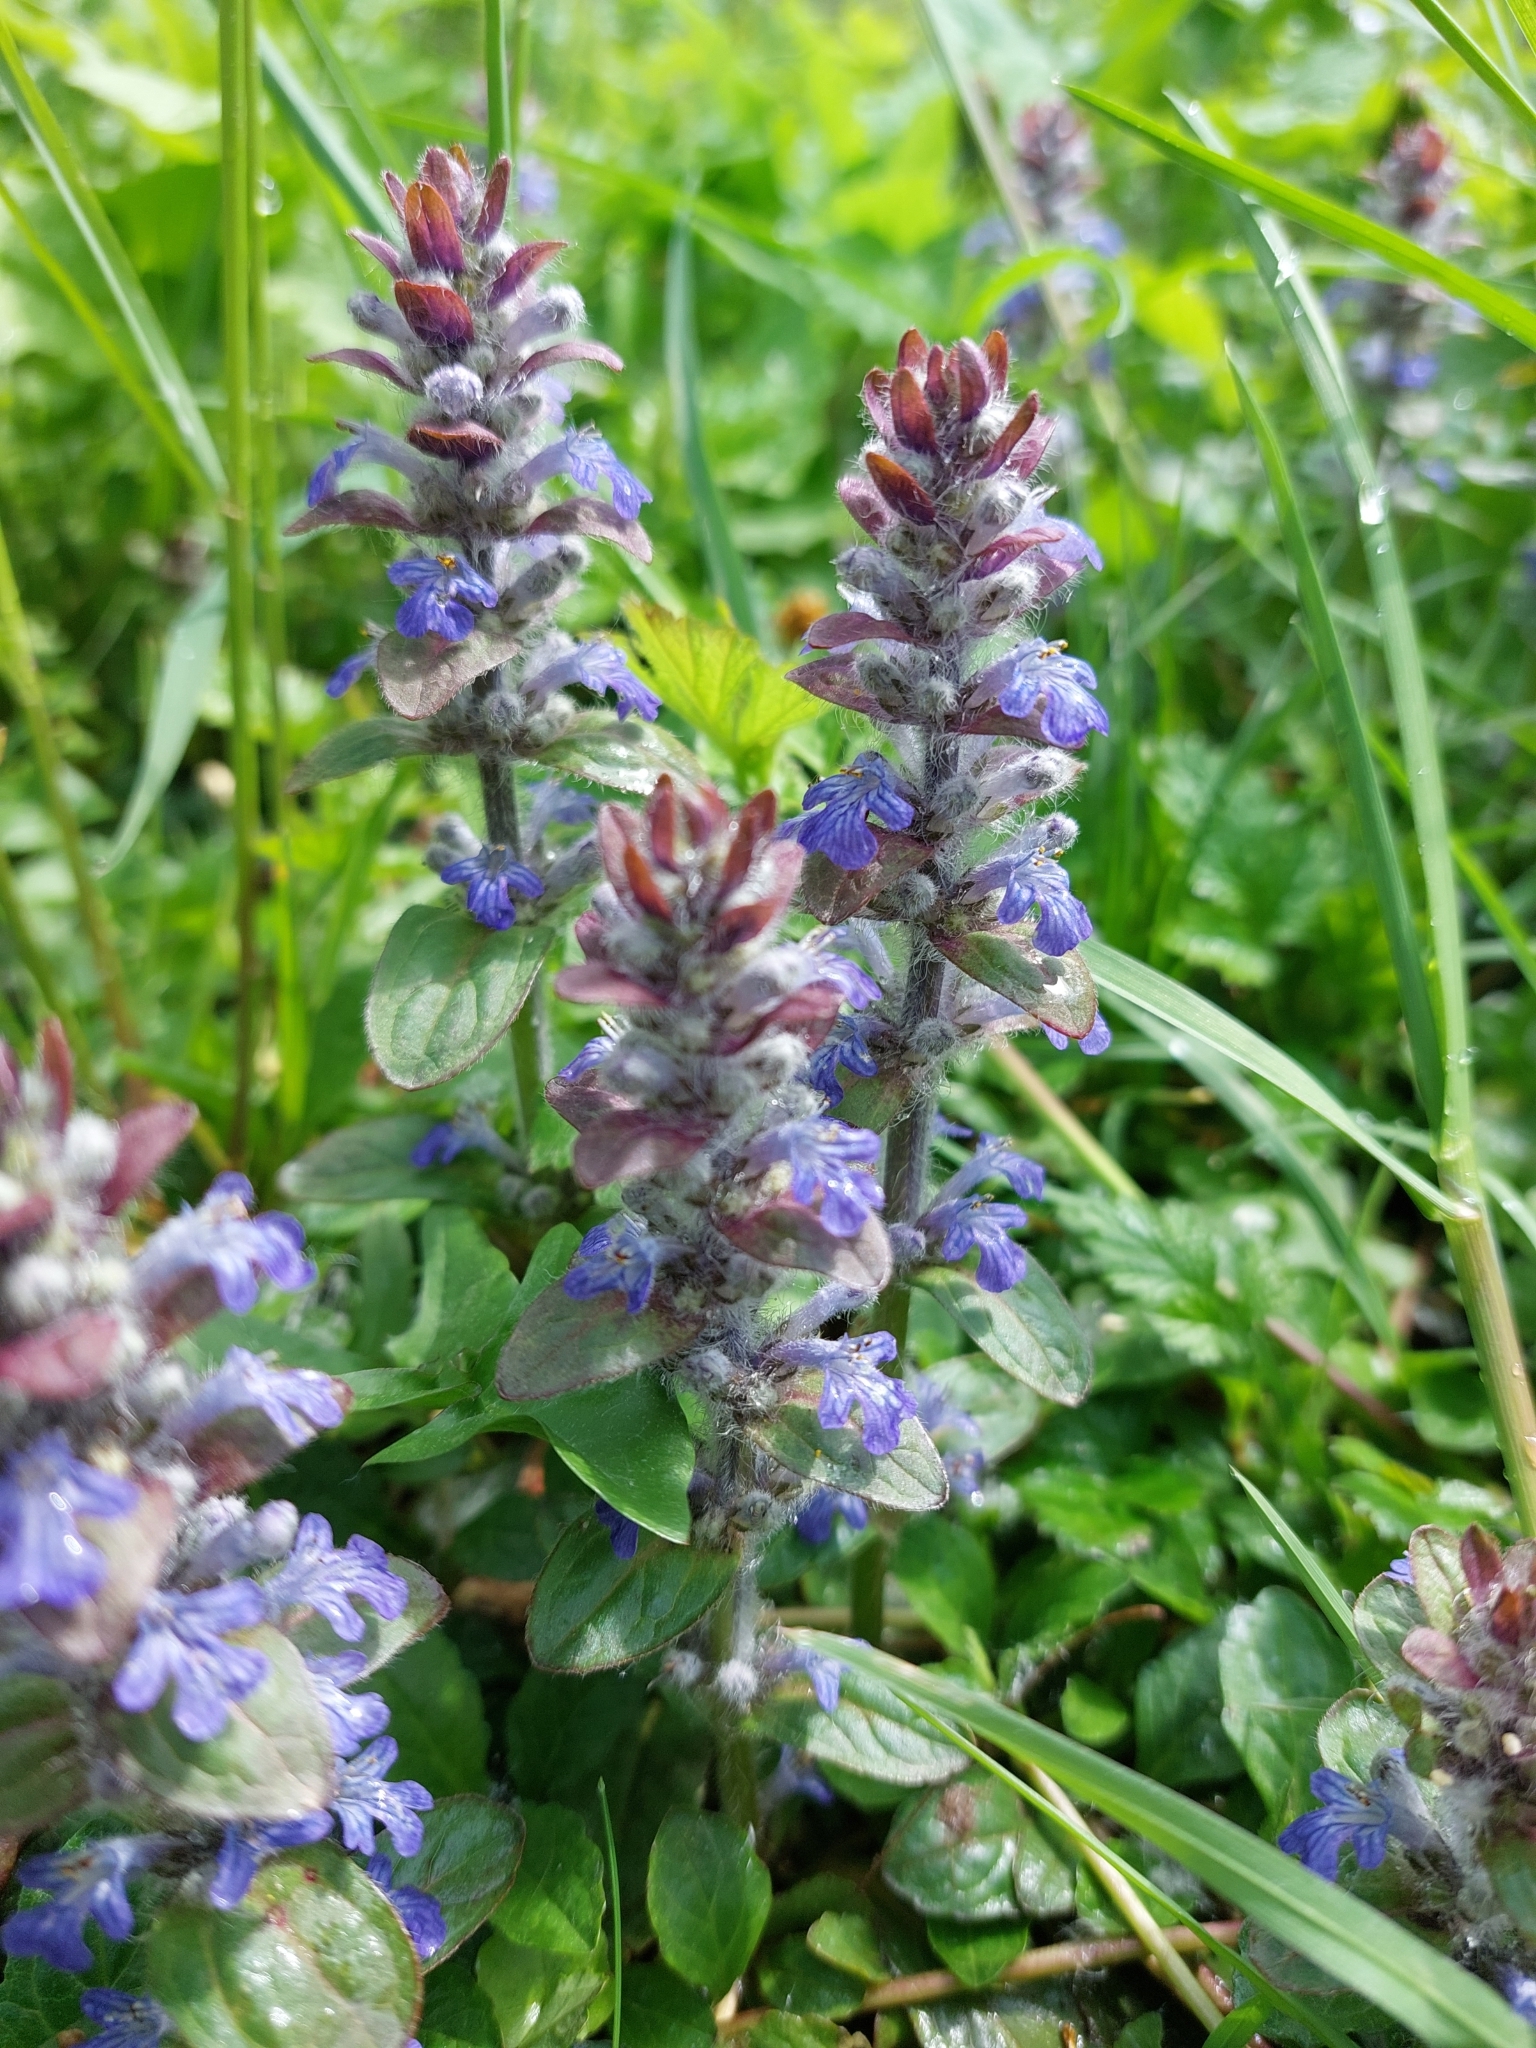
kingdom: Plantae
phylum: Tracheophyta
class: Magnoliopsida
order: Lamiales
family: Lamiaceae
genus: Ajuga
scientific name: Ajuga reptans
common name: Bugle
